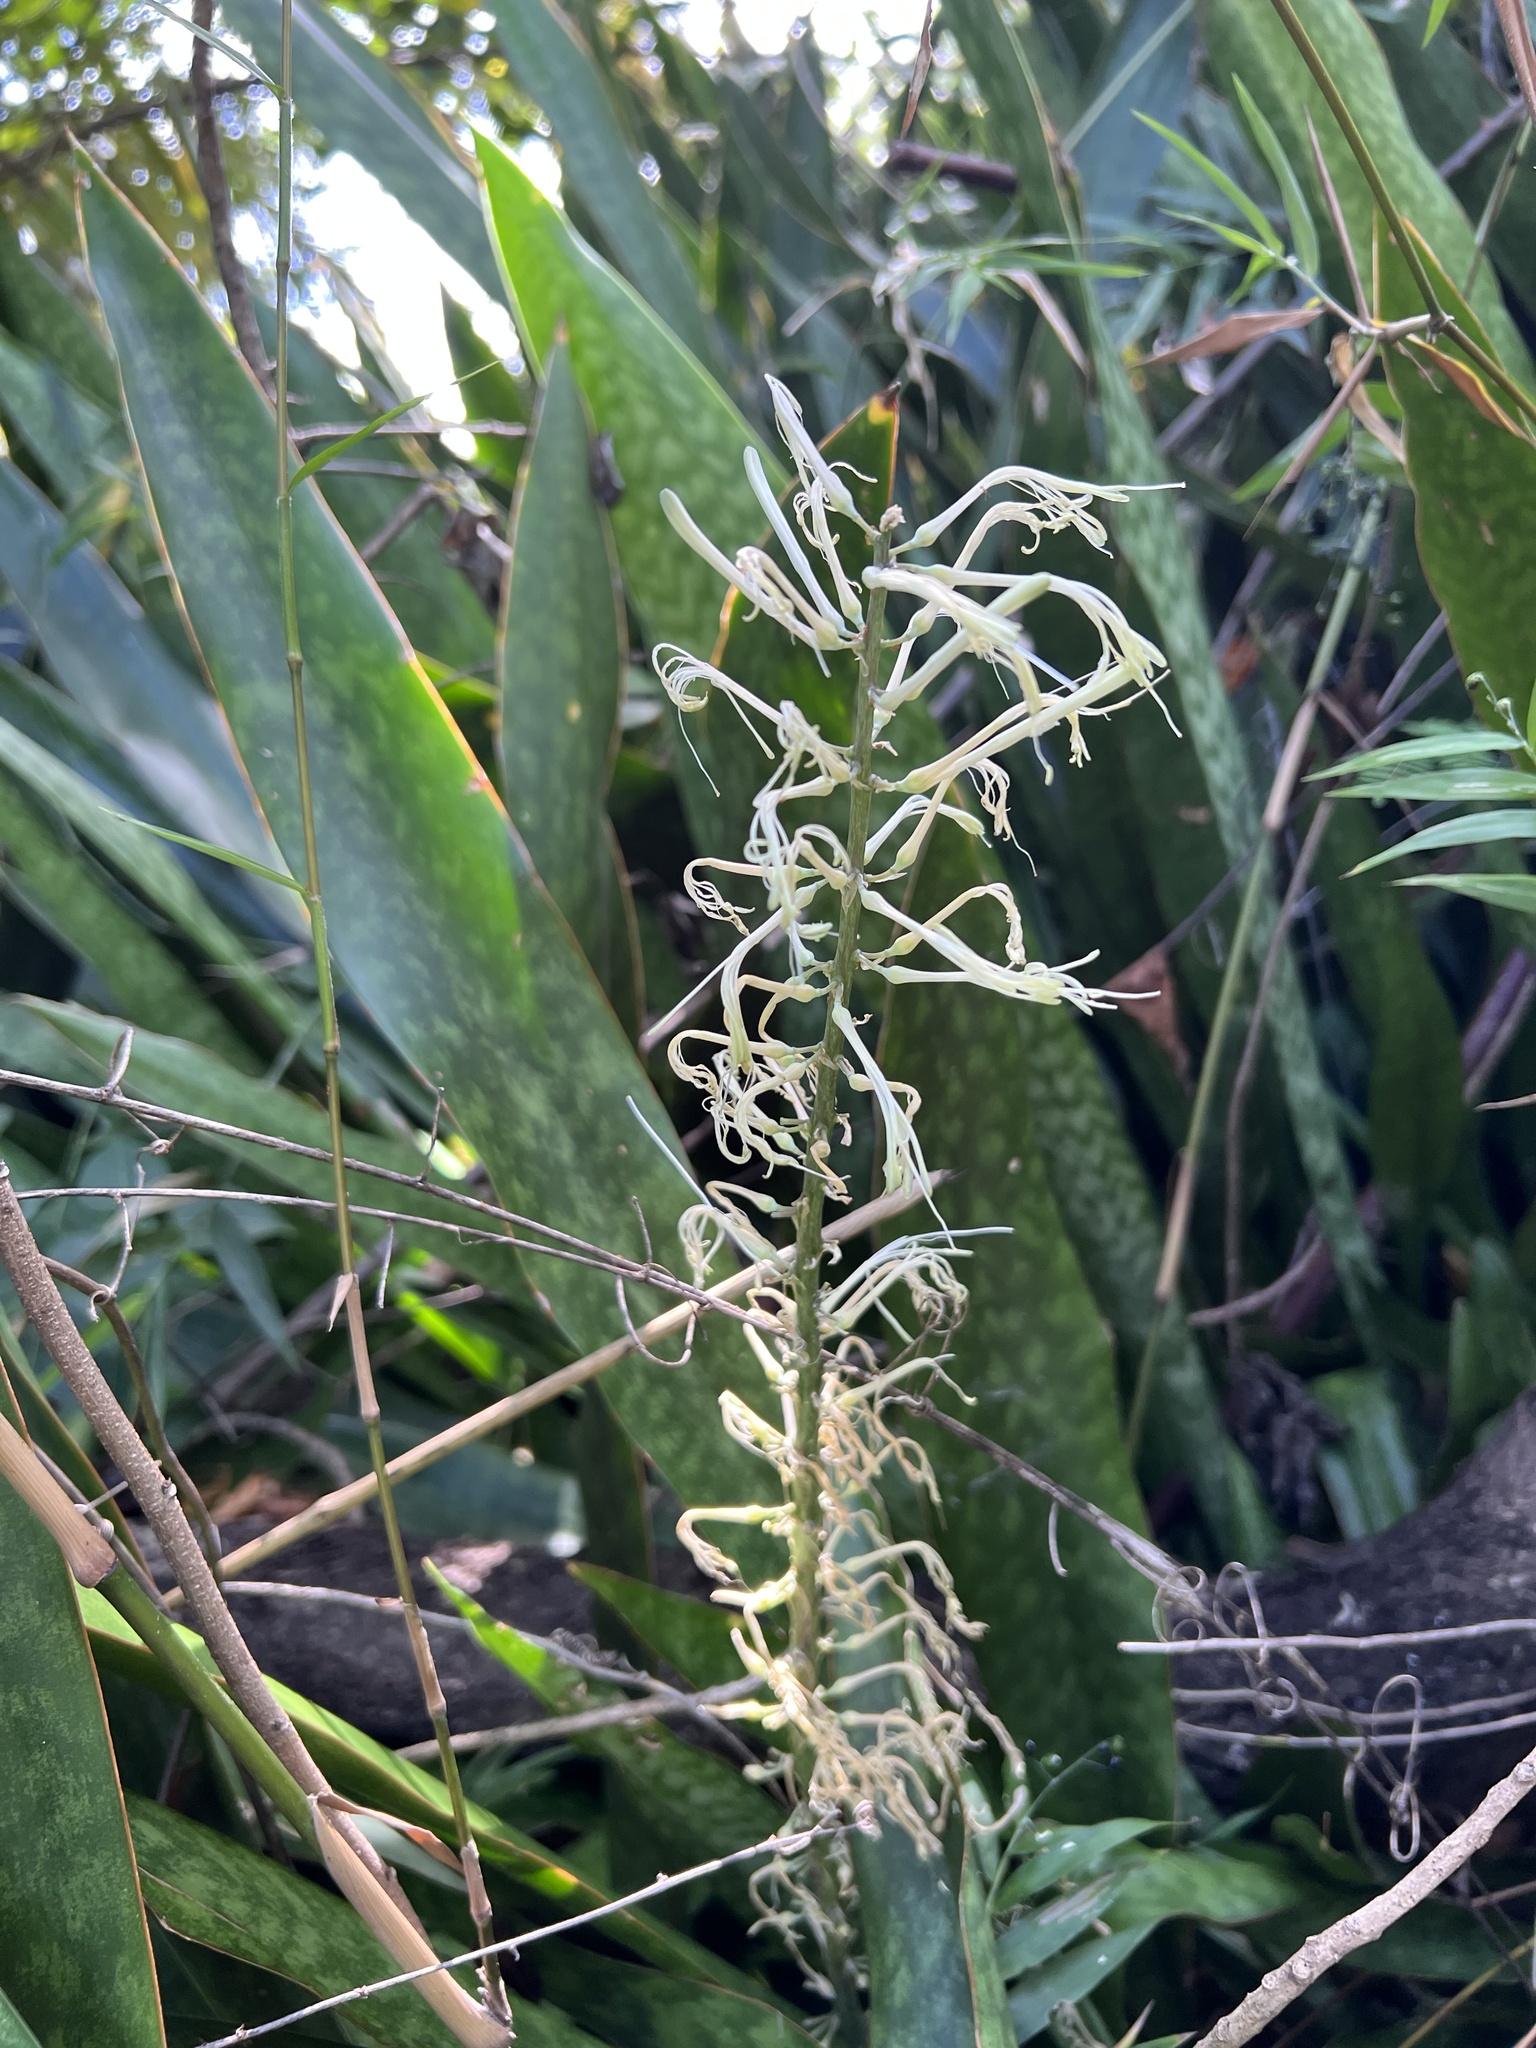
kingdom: Plantae
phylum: Tracheophyta
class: Liliopsida
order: Asparagales
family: Asparagaceae
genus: Dracaena
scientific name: Dracaena hyacinthoides
